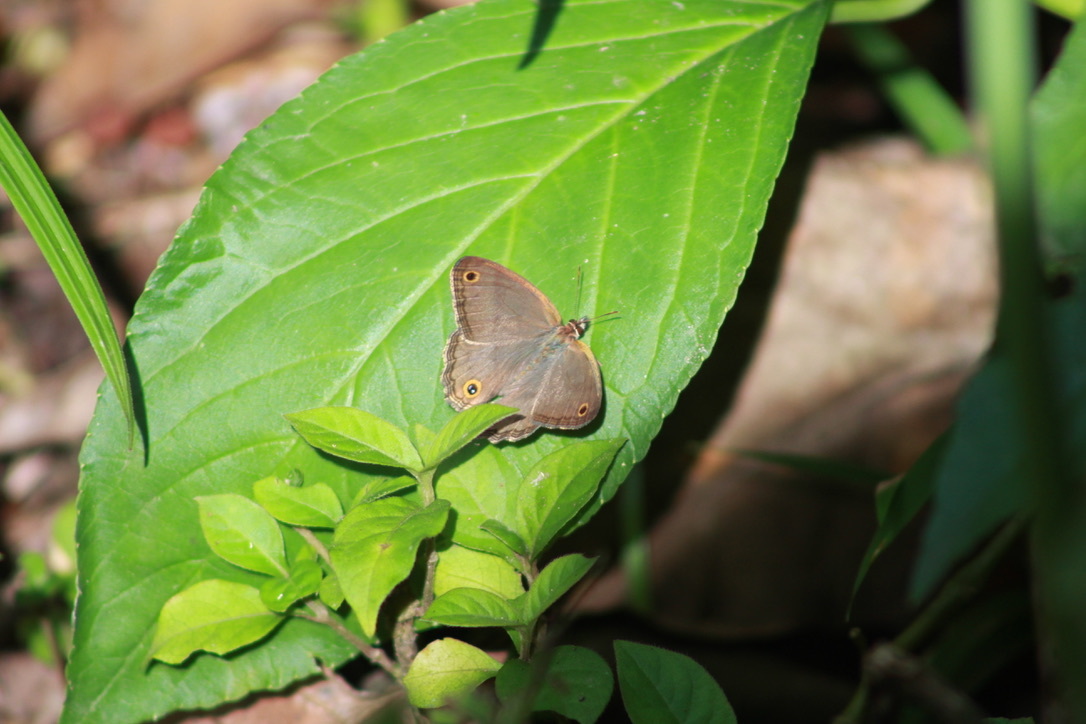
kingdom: Animalia
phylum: Arthropoda
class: Insecta
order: Lepidoptera
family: Nymphalidae
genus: Argyreuptychia
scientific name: Argyreuptychia penelope
